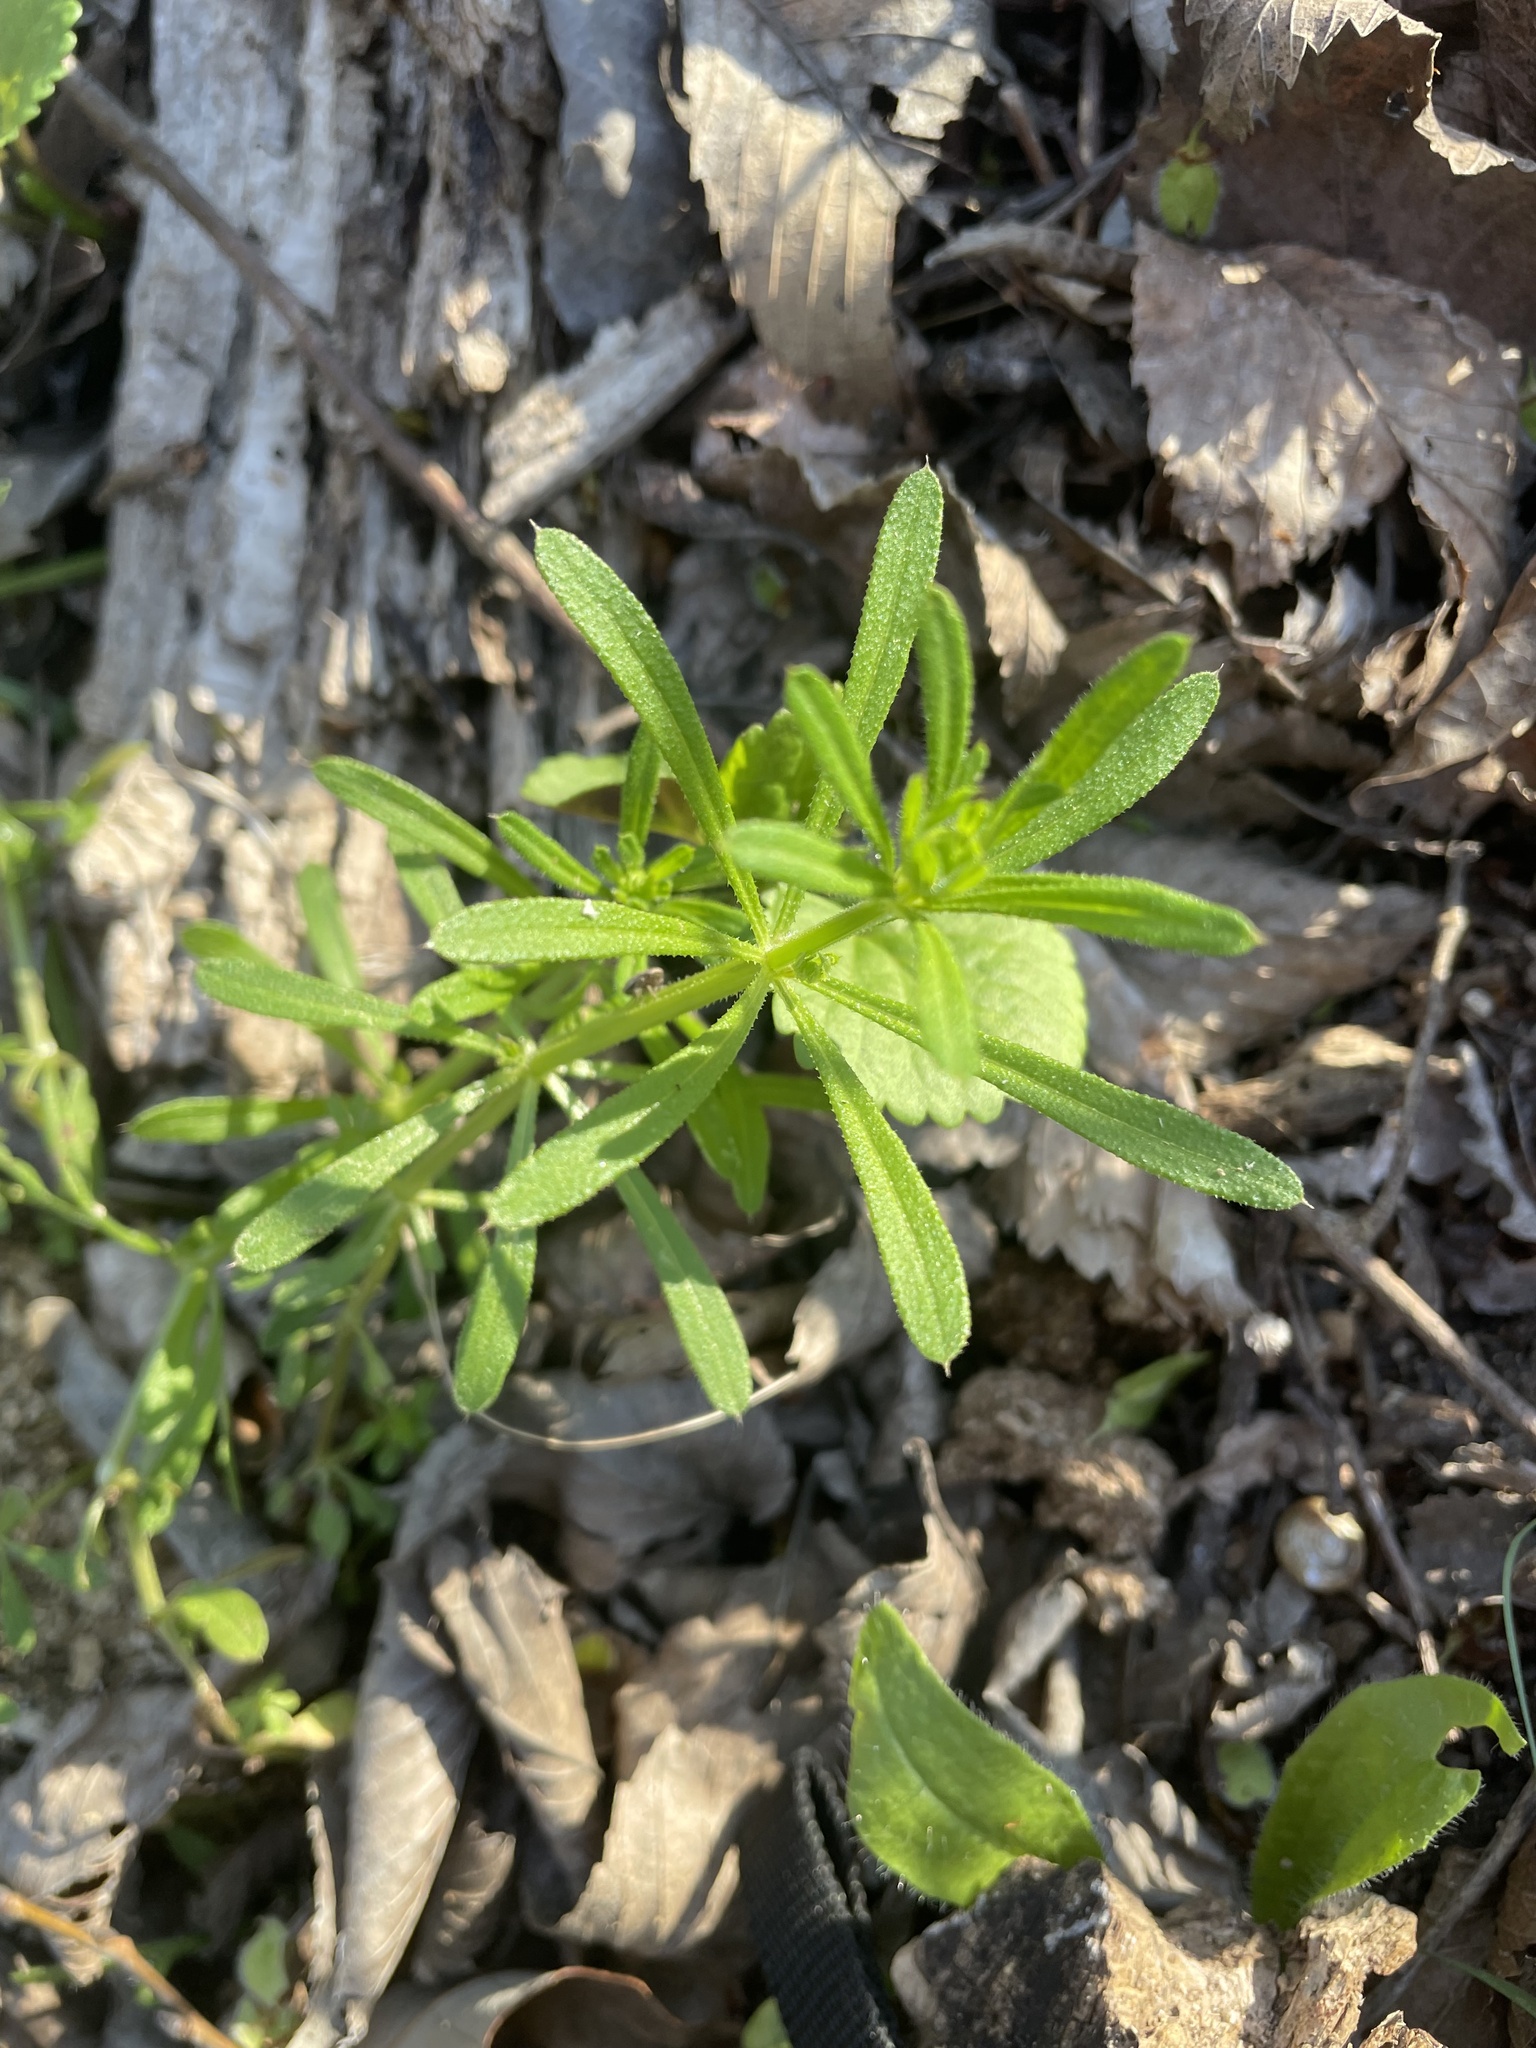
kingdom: Plantae
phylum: Tracheophyta
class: Magnoliopsida
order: Gentianales
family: Rubiaceae
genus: Galium
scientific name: Galium aparine
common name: Cleavers
